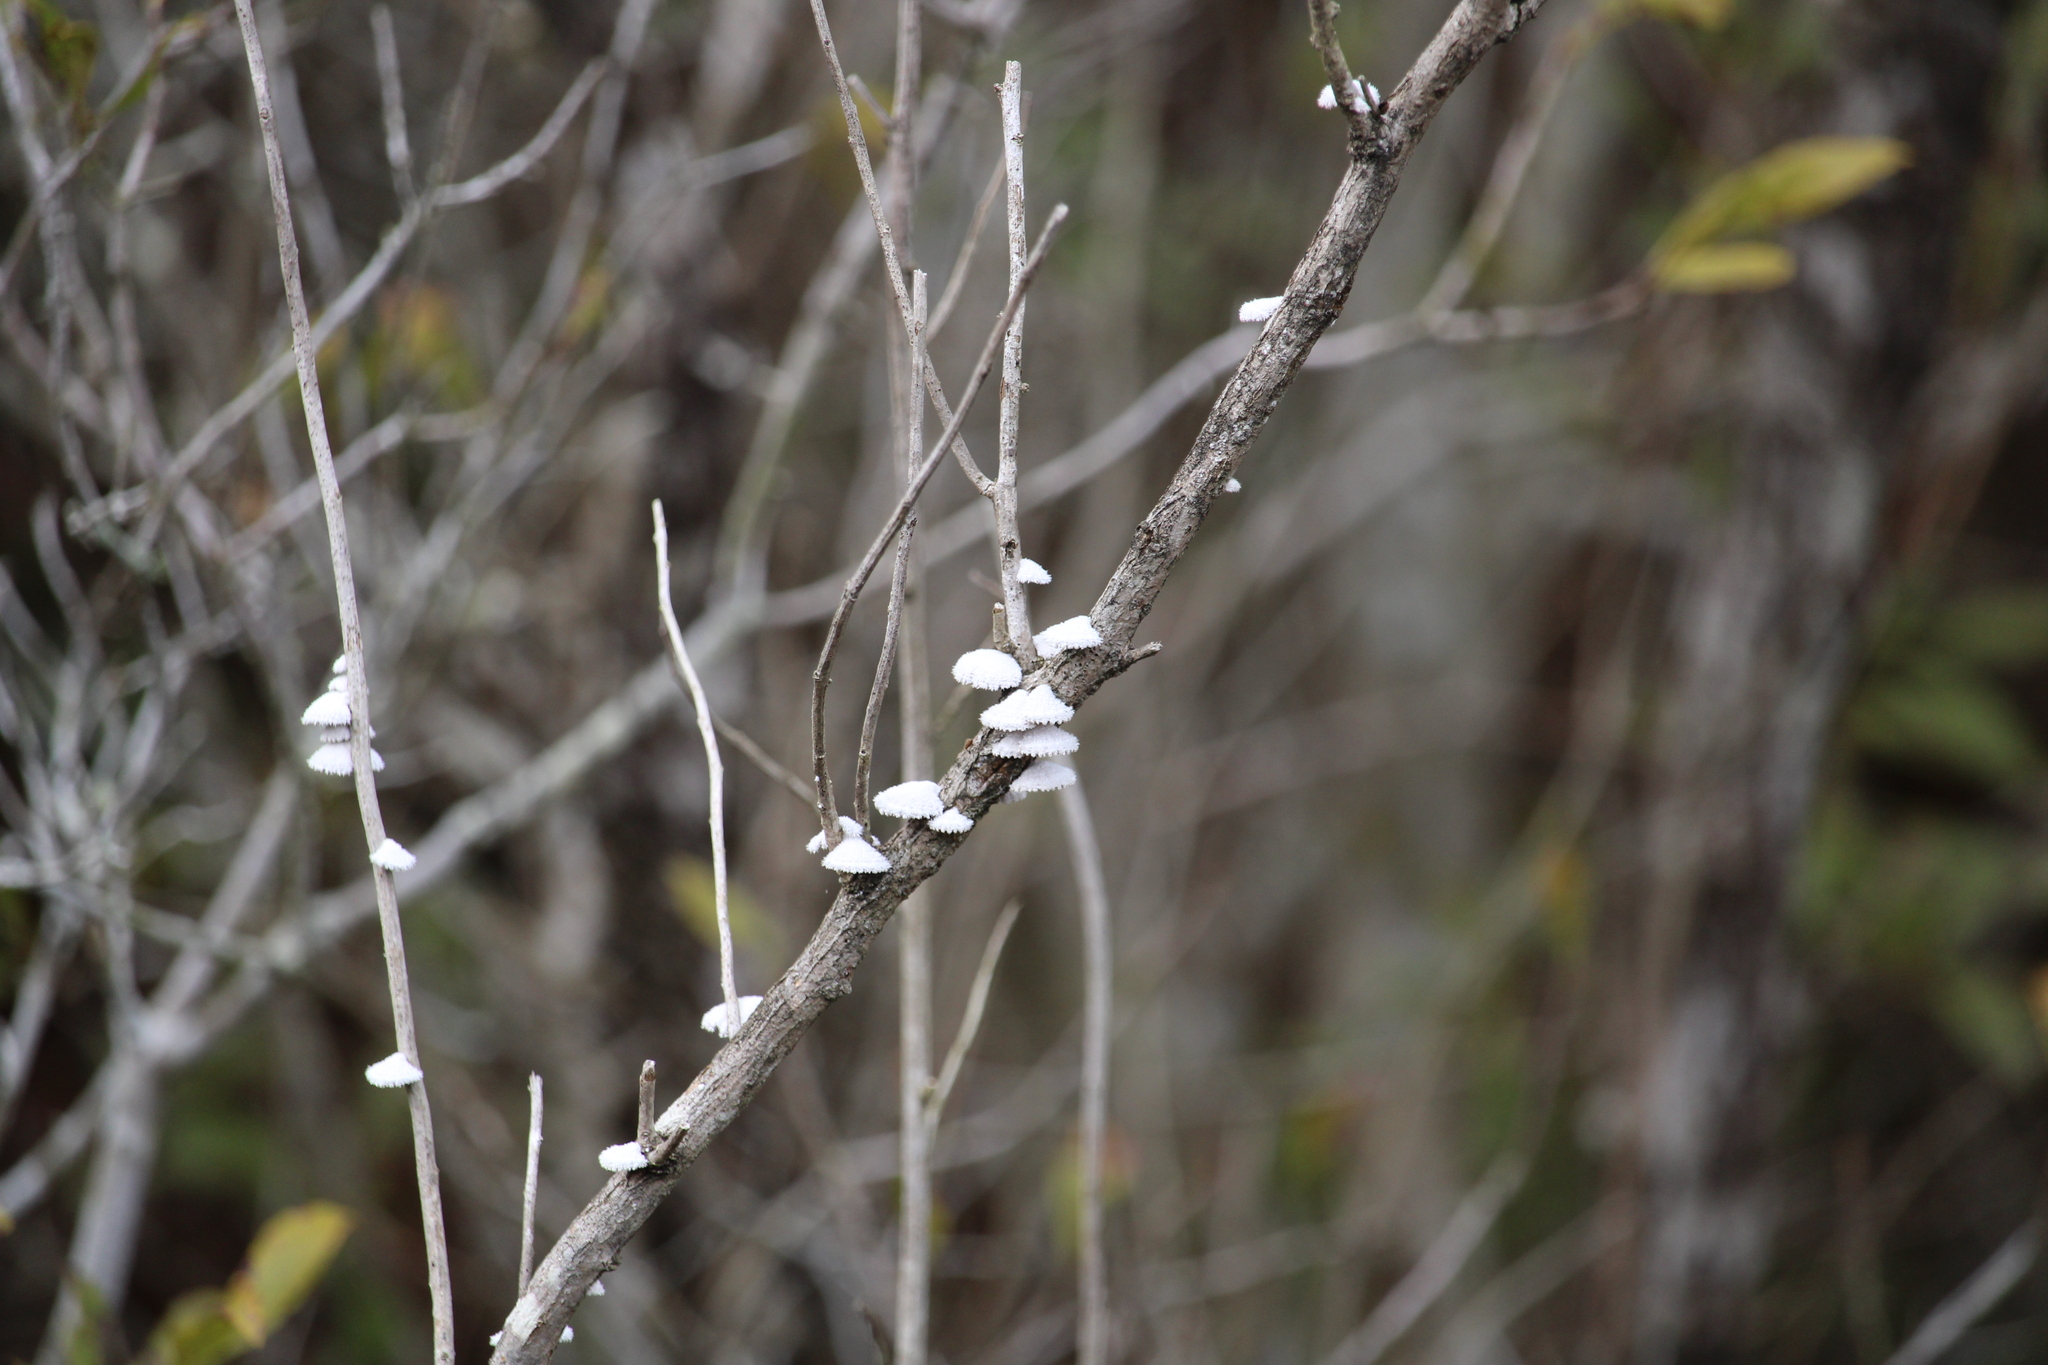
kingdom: Fungi
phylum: Basidiomycota
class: Agaricomycetes
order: Agaricales
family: Schizophyllaceae
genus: Schizophyllum
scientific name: Schizophyllum commune
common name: Common porecrust
